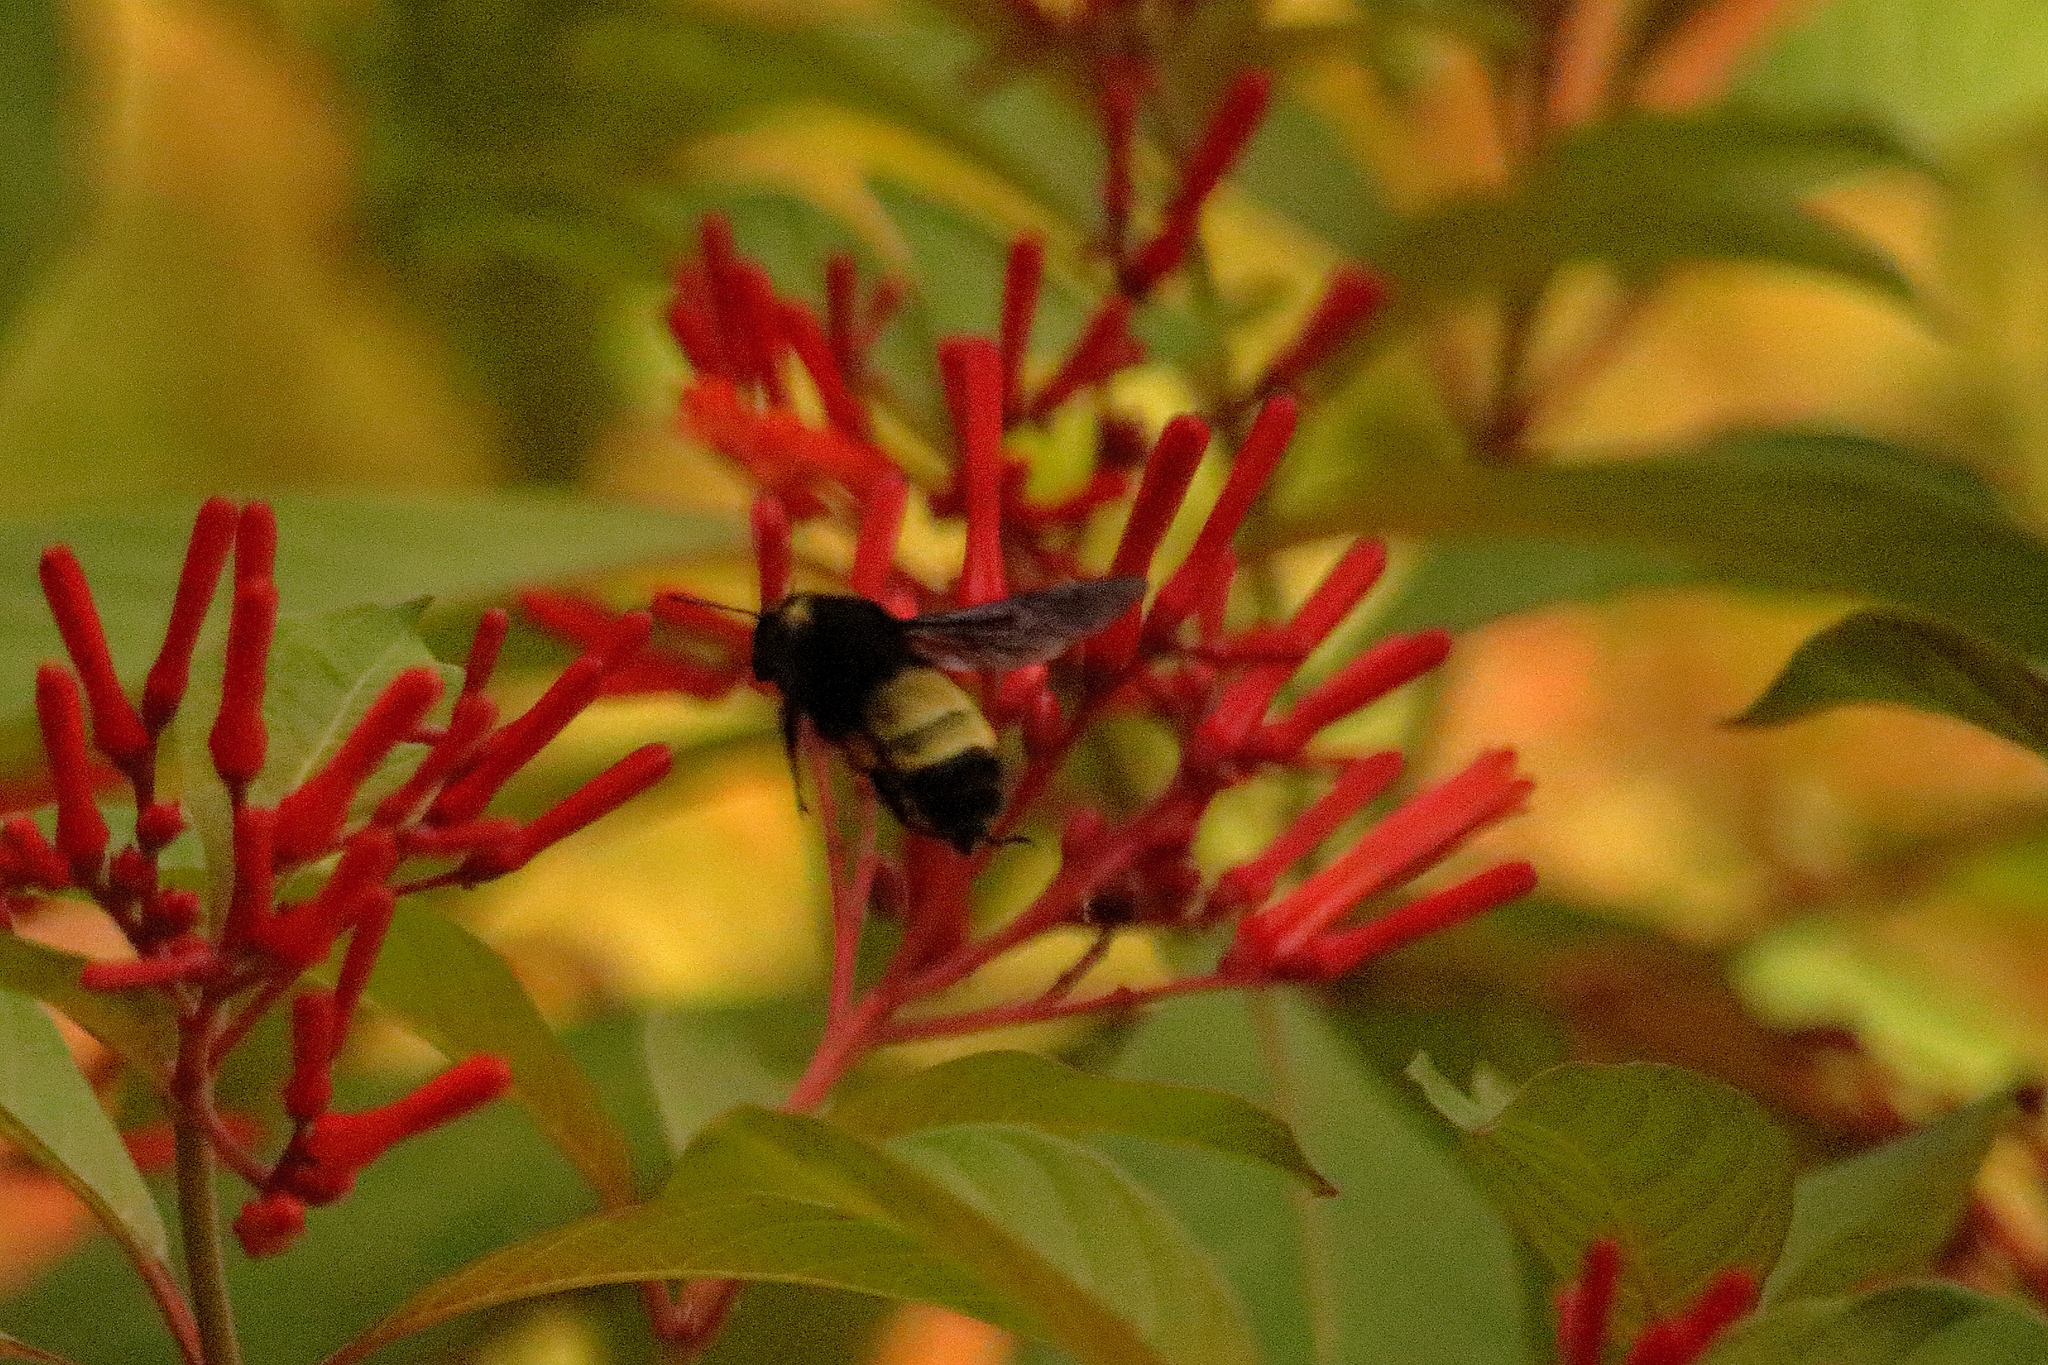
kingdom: Animalia
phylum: Arthropoda
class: Insecta
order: Hymenoptera
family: Apidae
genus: Bombus
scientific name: Bombus pensylvanicus
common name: Bumble bee
